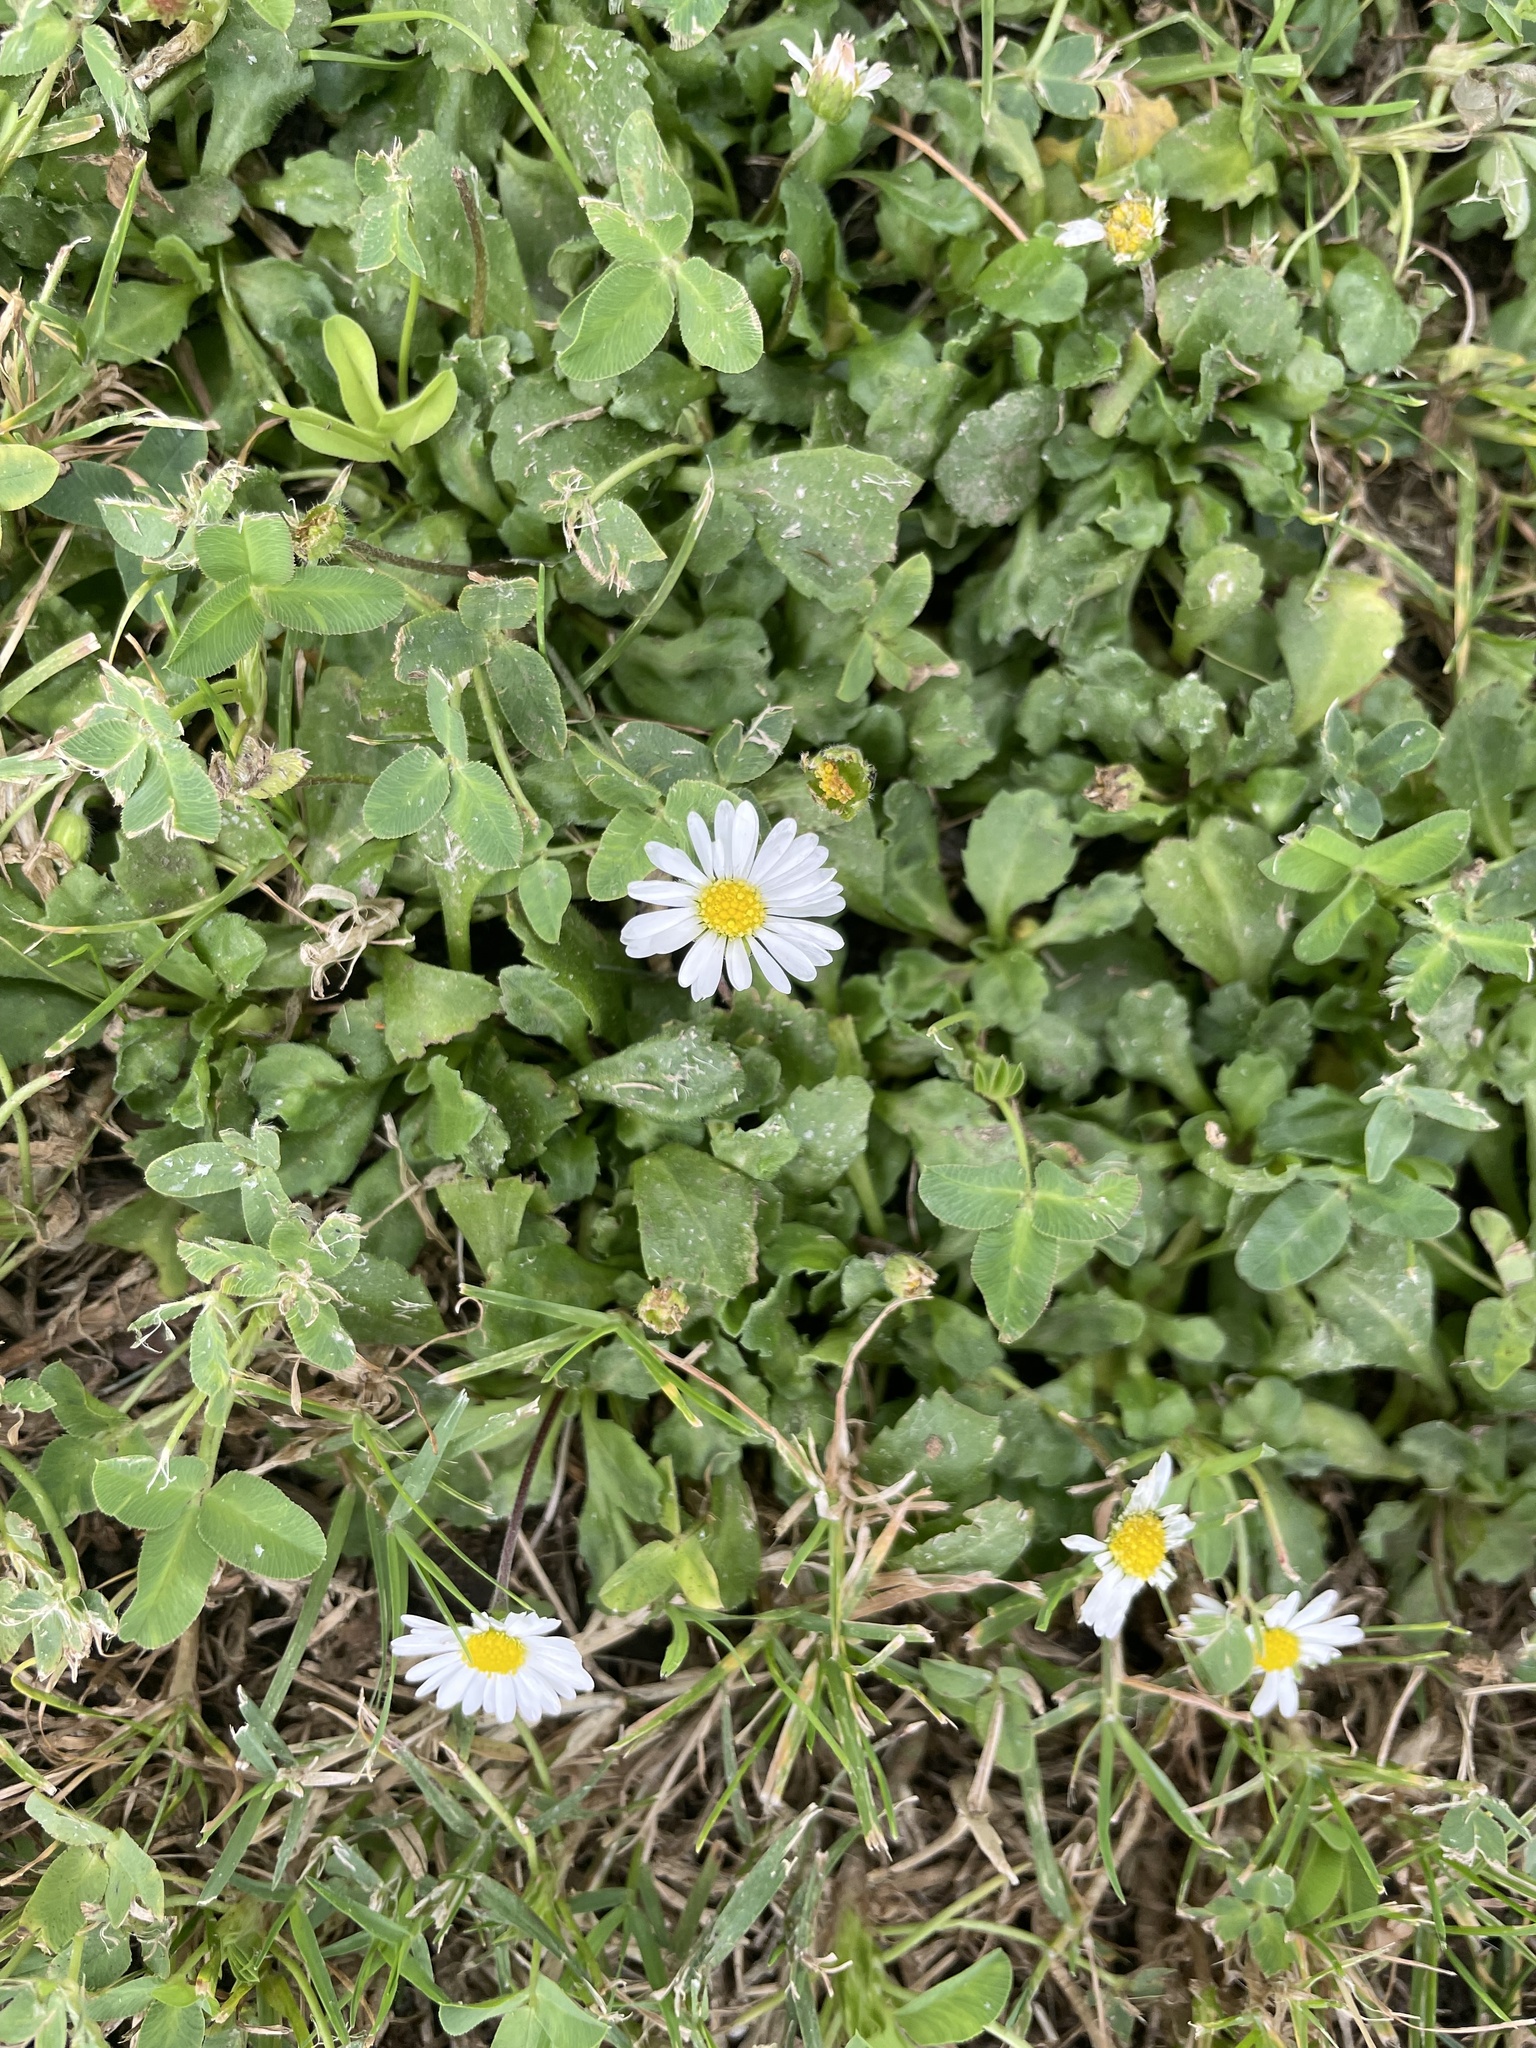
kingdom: Plantae
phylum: Tracheophyta
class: Magnoliopsida
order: Asterales
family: Asteraceae
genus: Bellis
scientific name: Bellis perennis
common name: Lawndaisy
